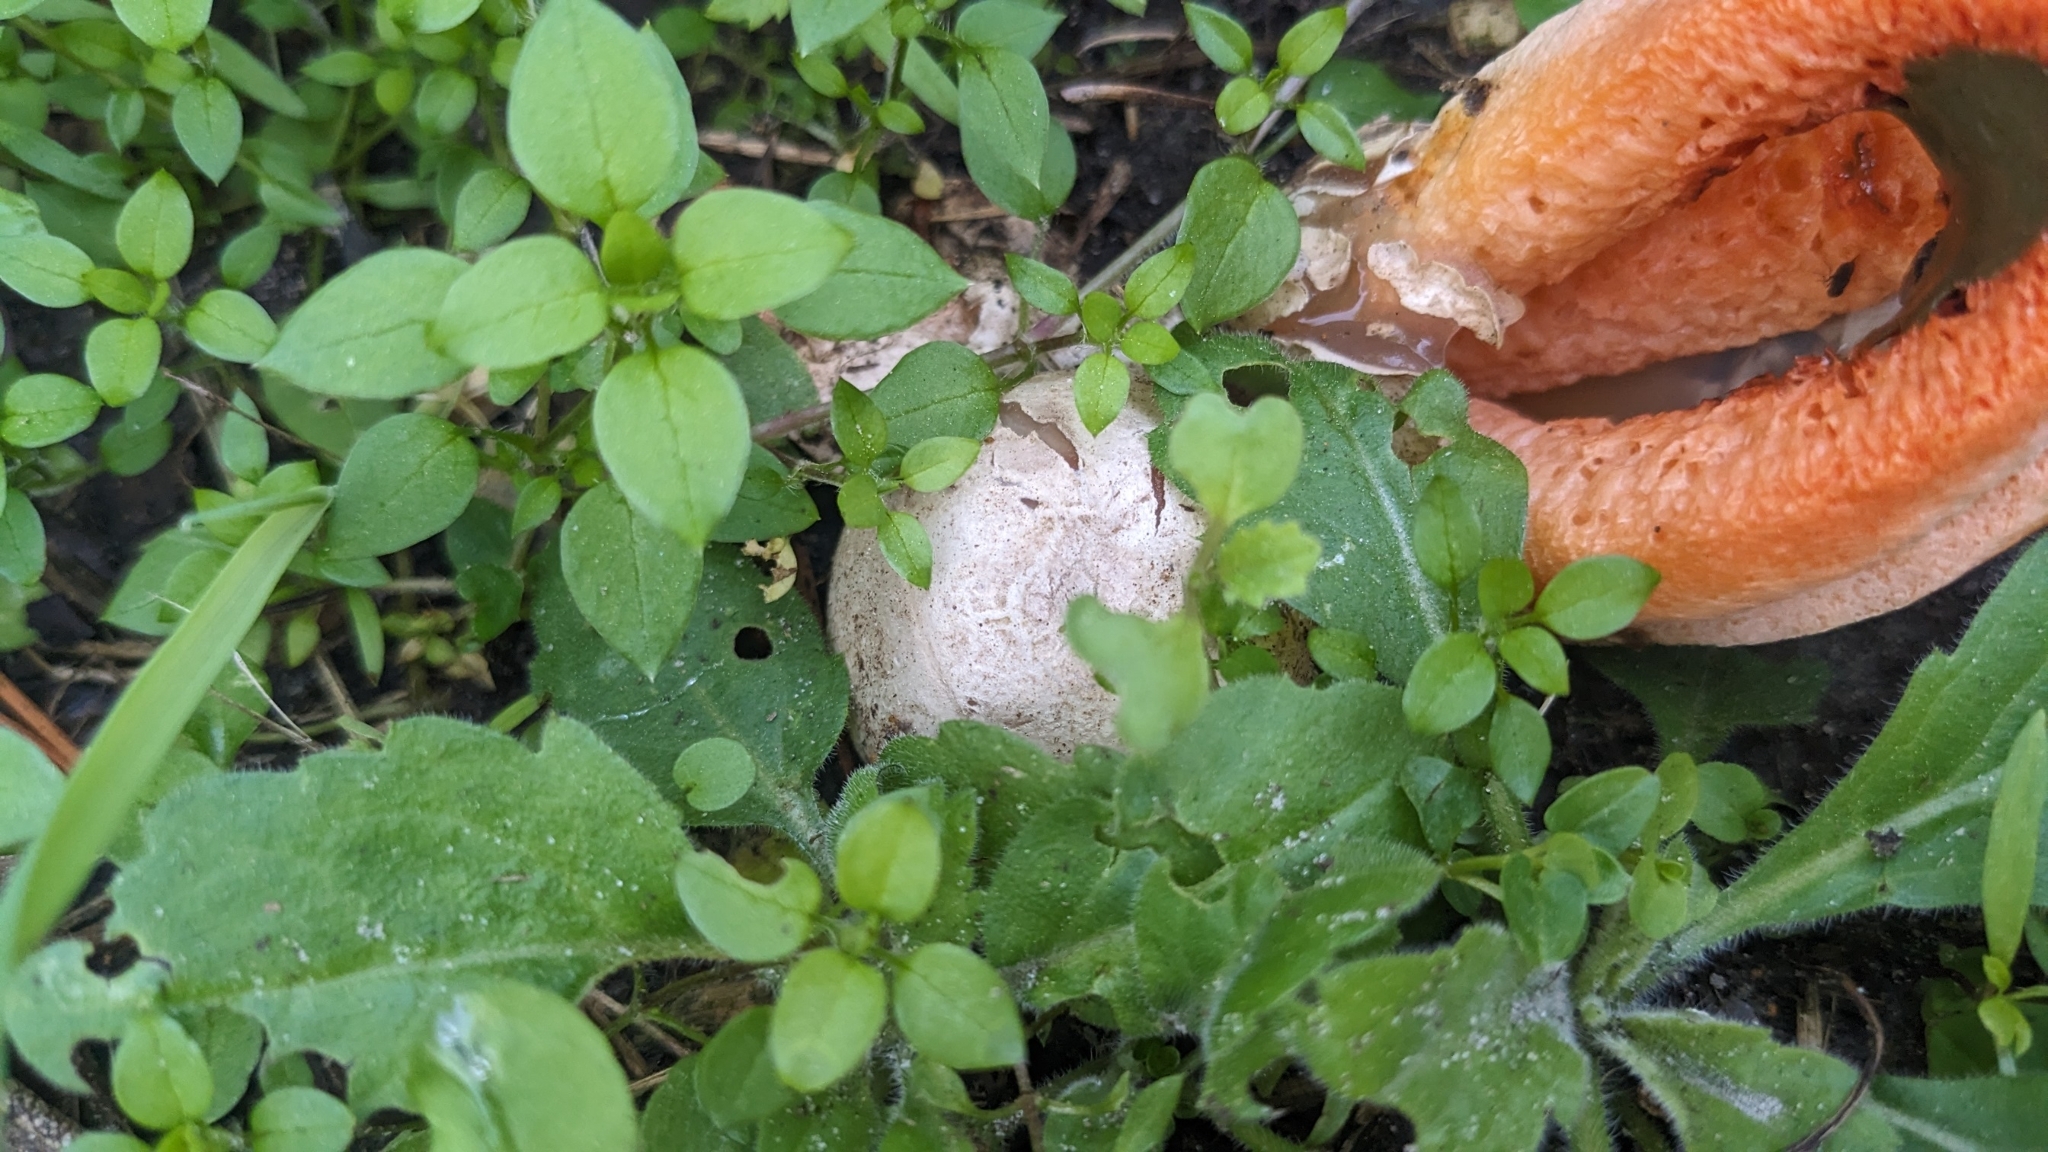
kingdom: Fungi
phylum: Basidiomycota
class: Agaricomycetes
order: Phallales
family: Phallaceae
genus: Clathrus
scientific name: Clathrus columnatus
